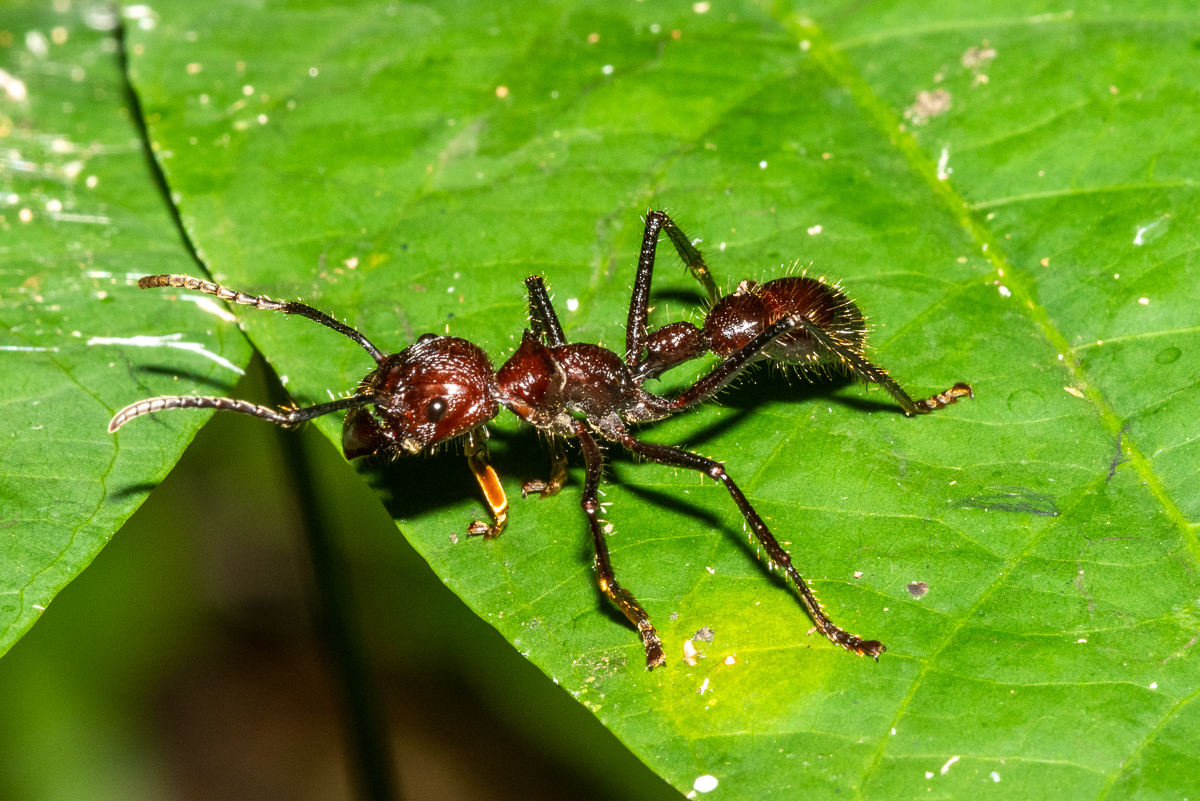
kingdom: Animalia
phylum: Arthropoda
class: Insecta
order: Hymenoptera
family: Formicidae
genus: Paraponera
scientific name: Paraponera clavata
